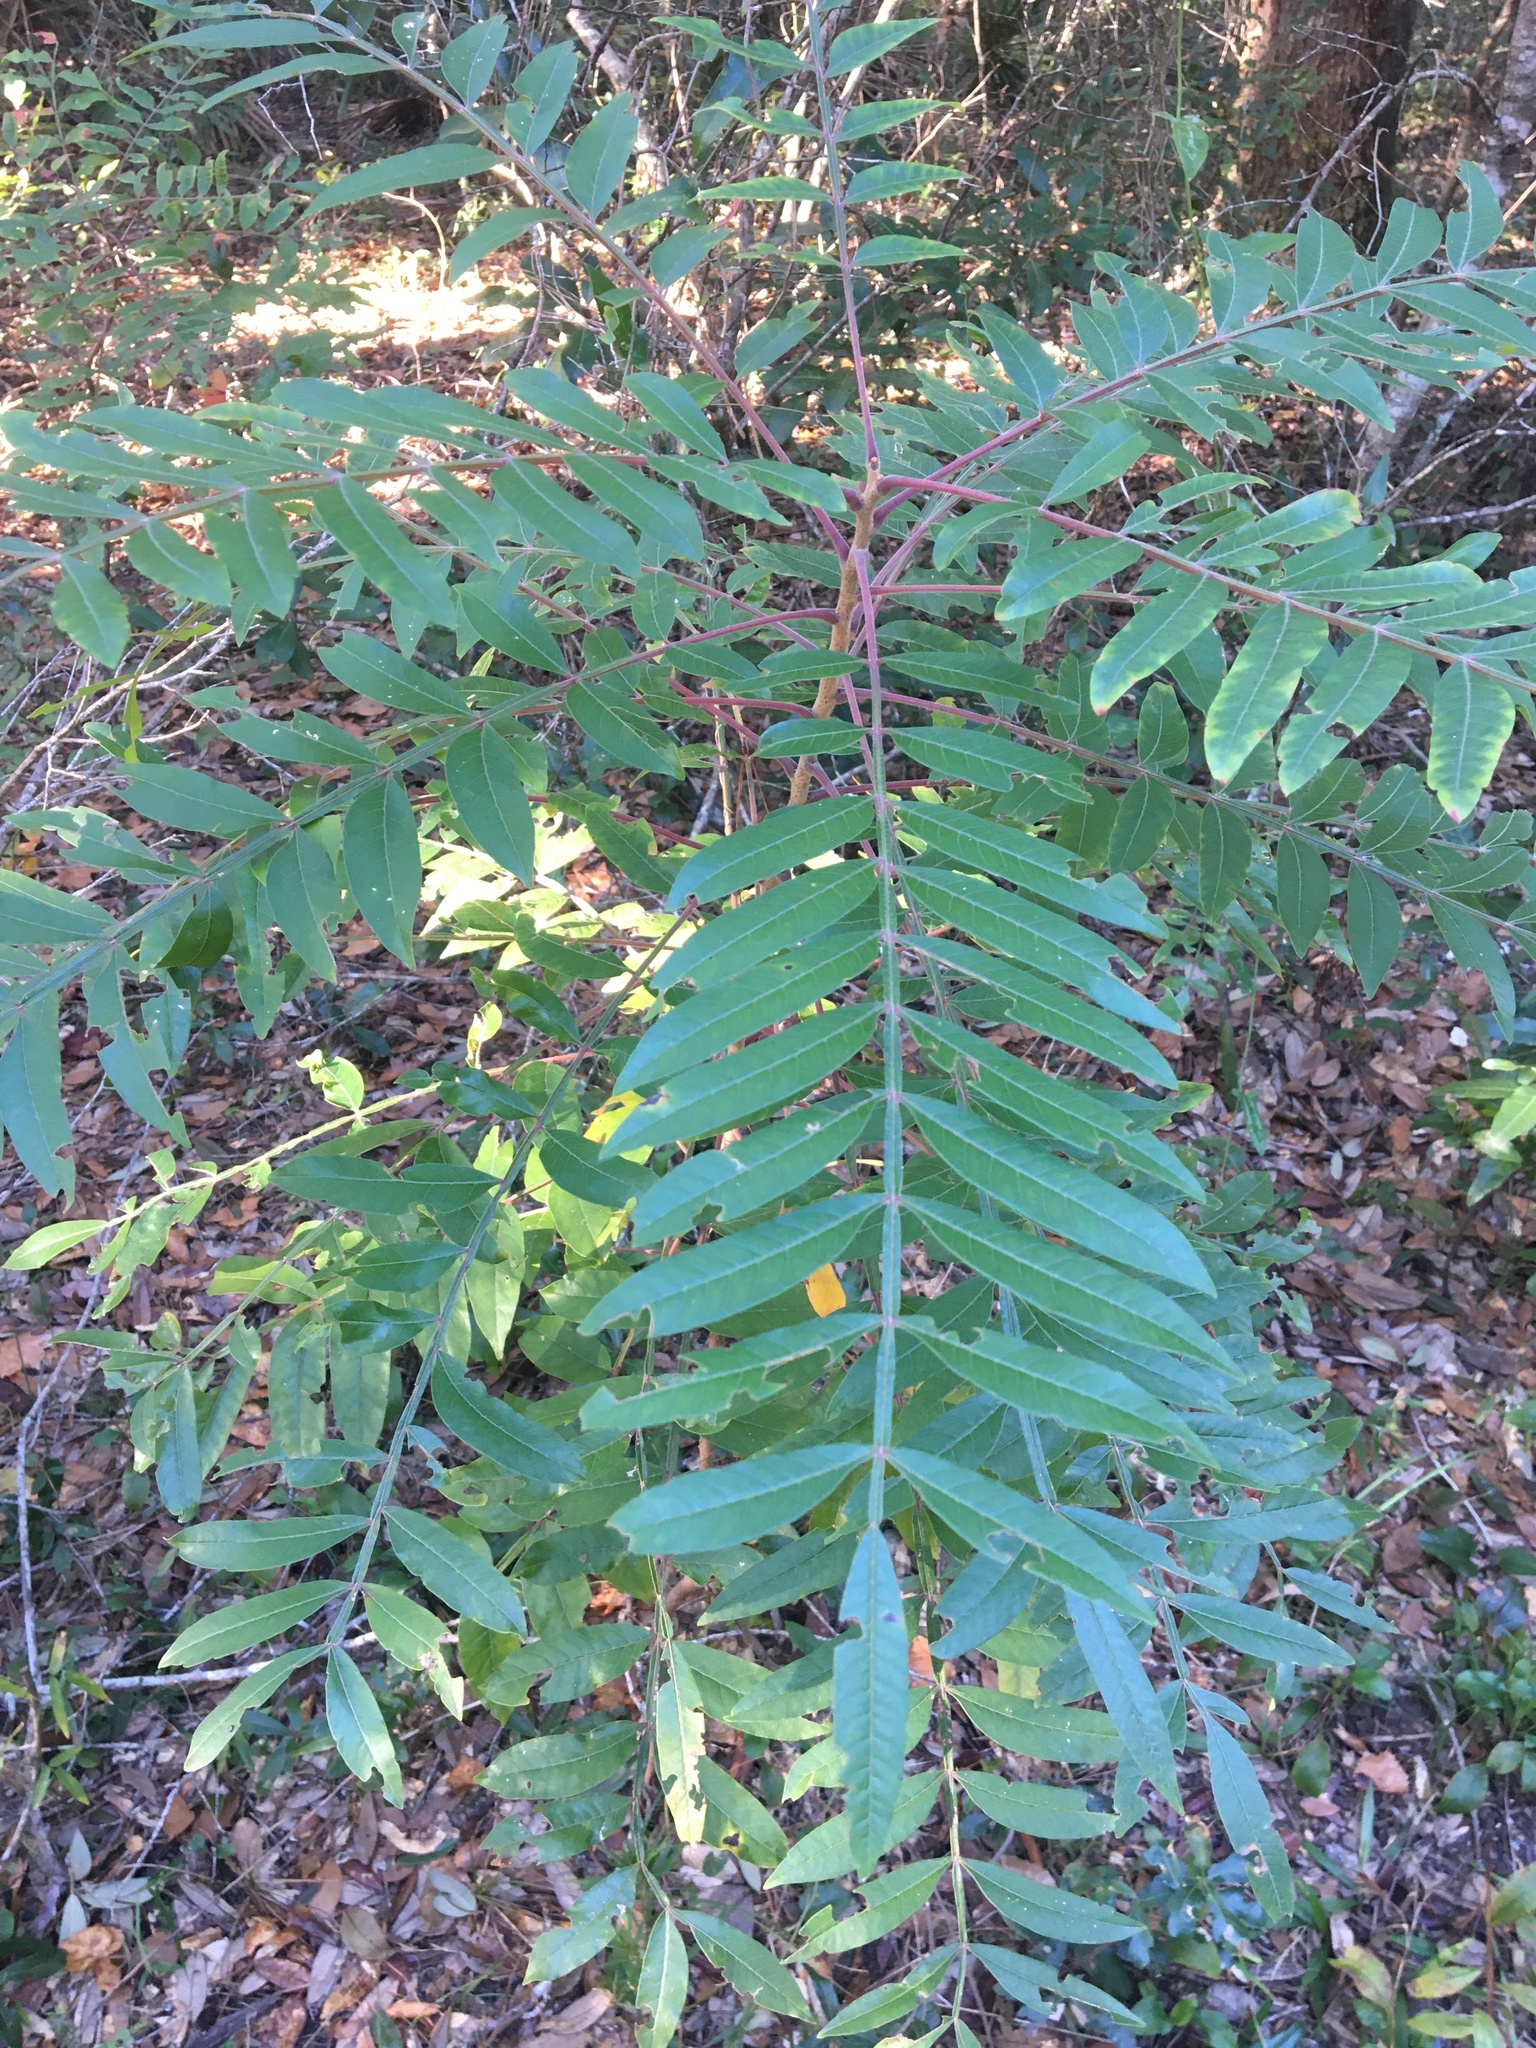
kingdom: Plantae
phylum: Tracheophyta
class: Magnoliopsida
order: Sapindales
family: Anacardiaceae
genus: Rhus
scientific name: Rhus copallina
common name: Shining sumac
